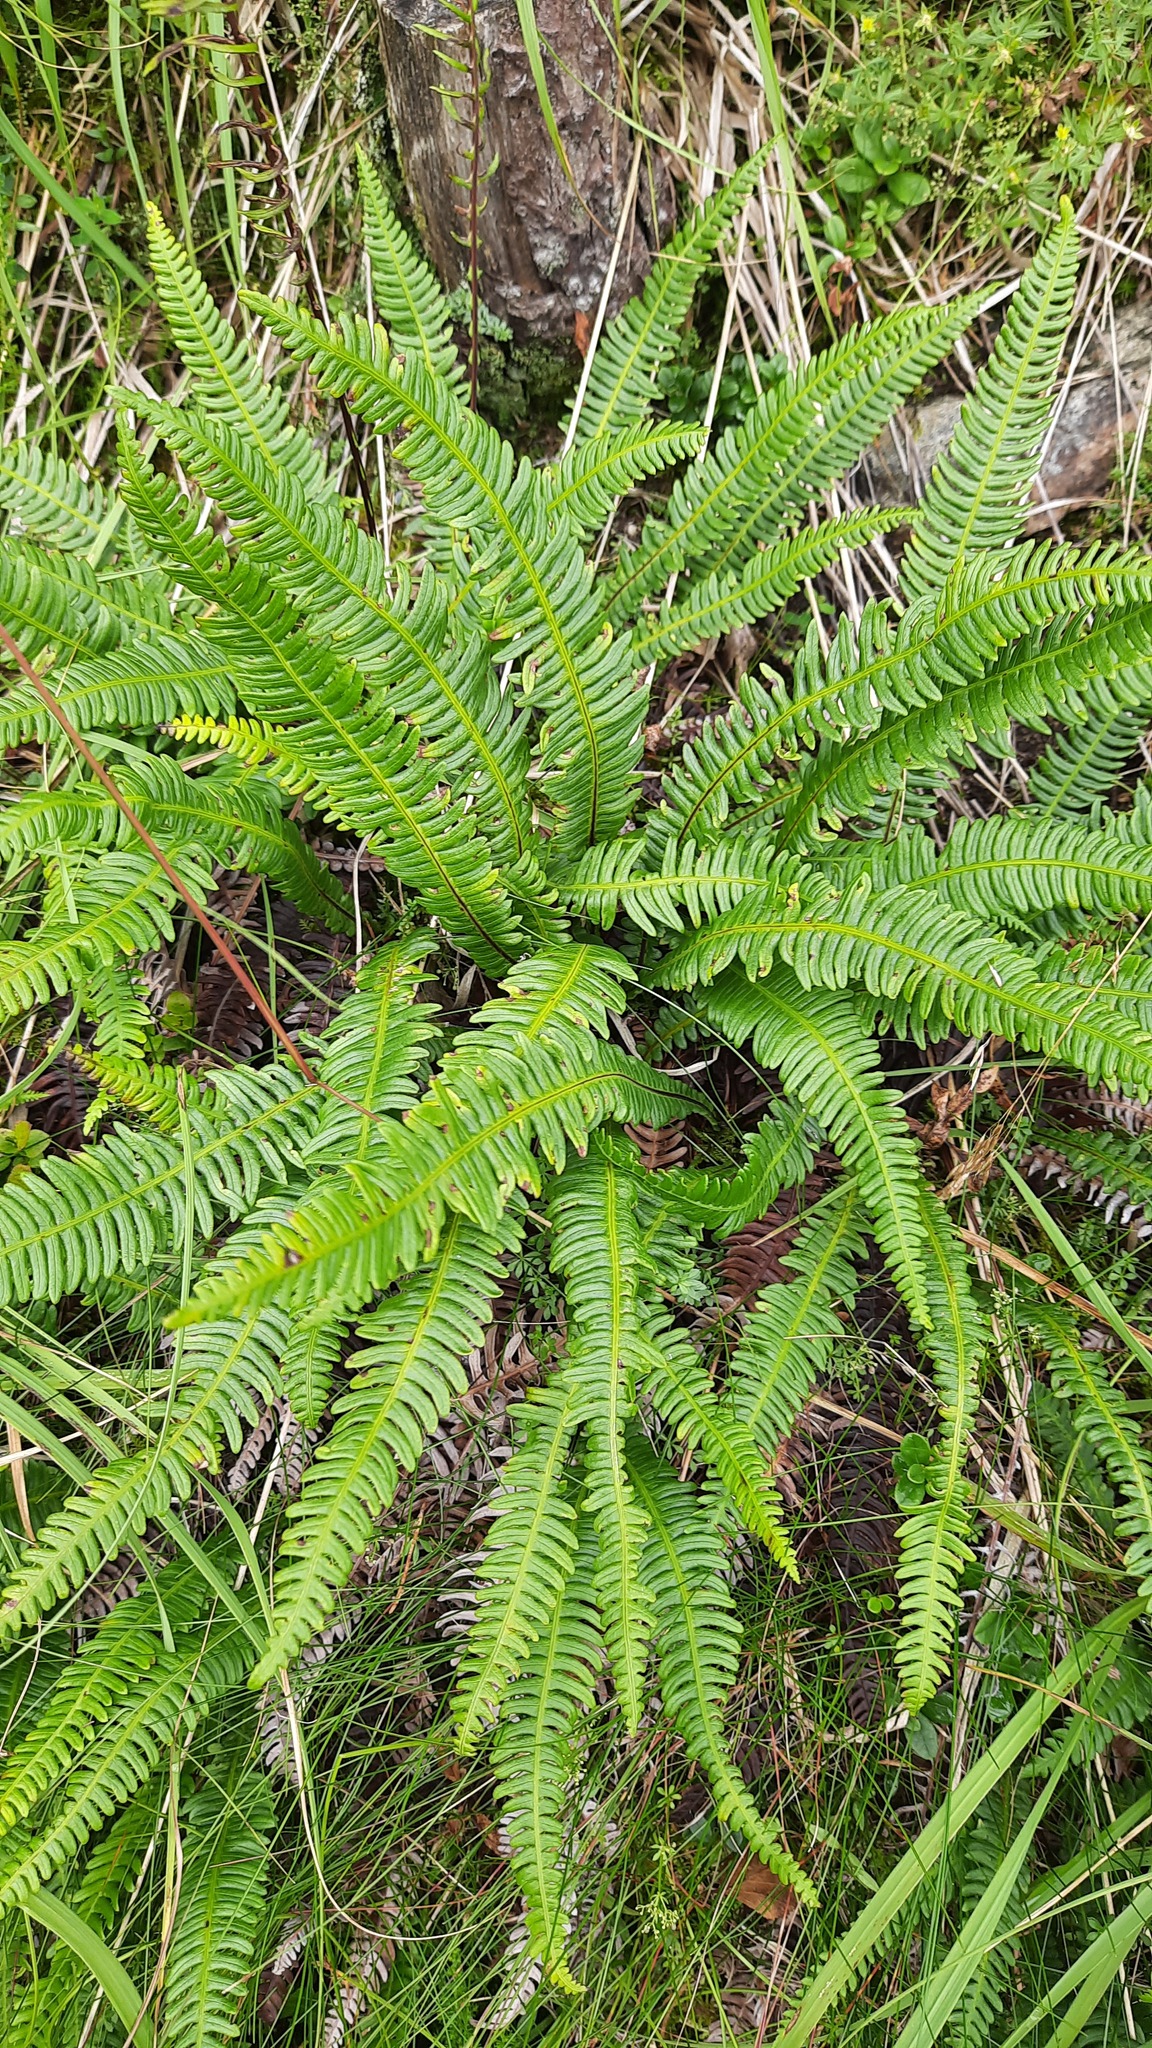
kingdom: Plantae
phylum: Tracheophyta
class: Polypodiopsida
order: Polypodiales
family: Blechnaceae
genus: Struthiopteris
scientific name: Struthiopteris spicant
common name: Deer fern
